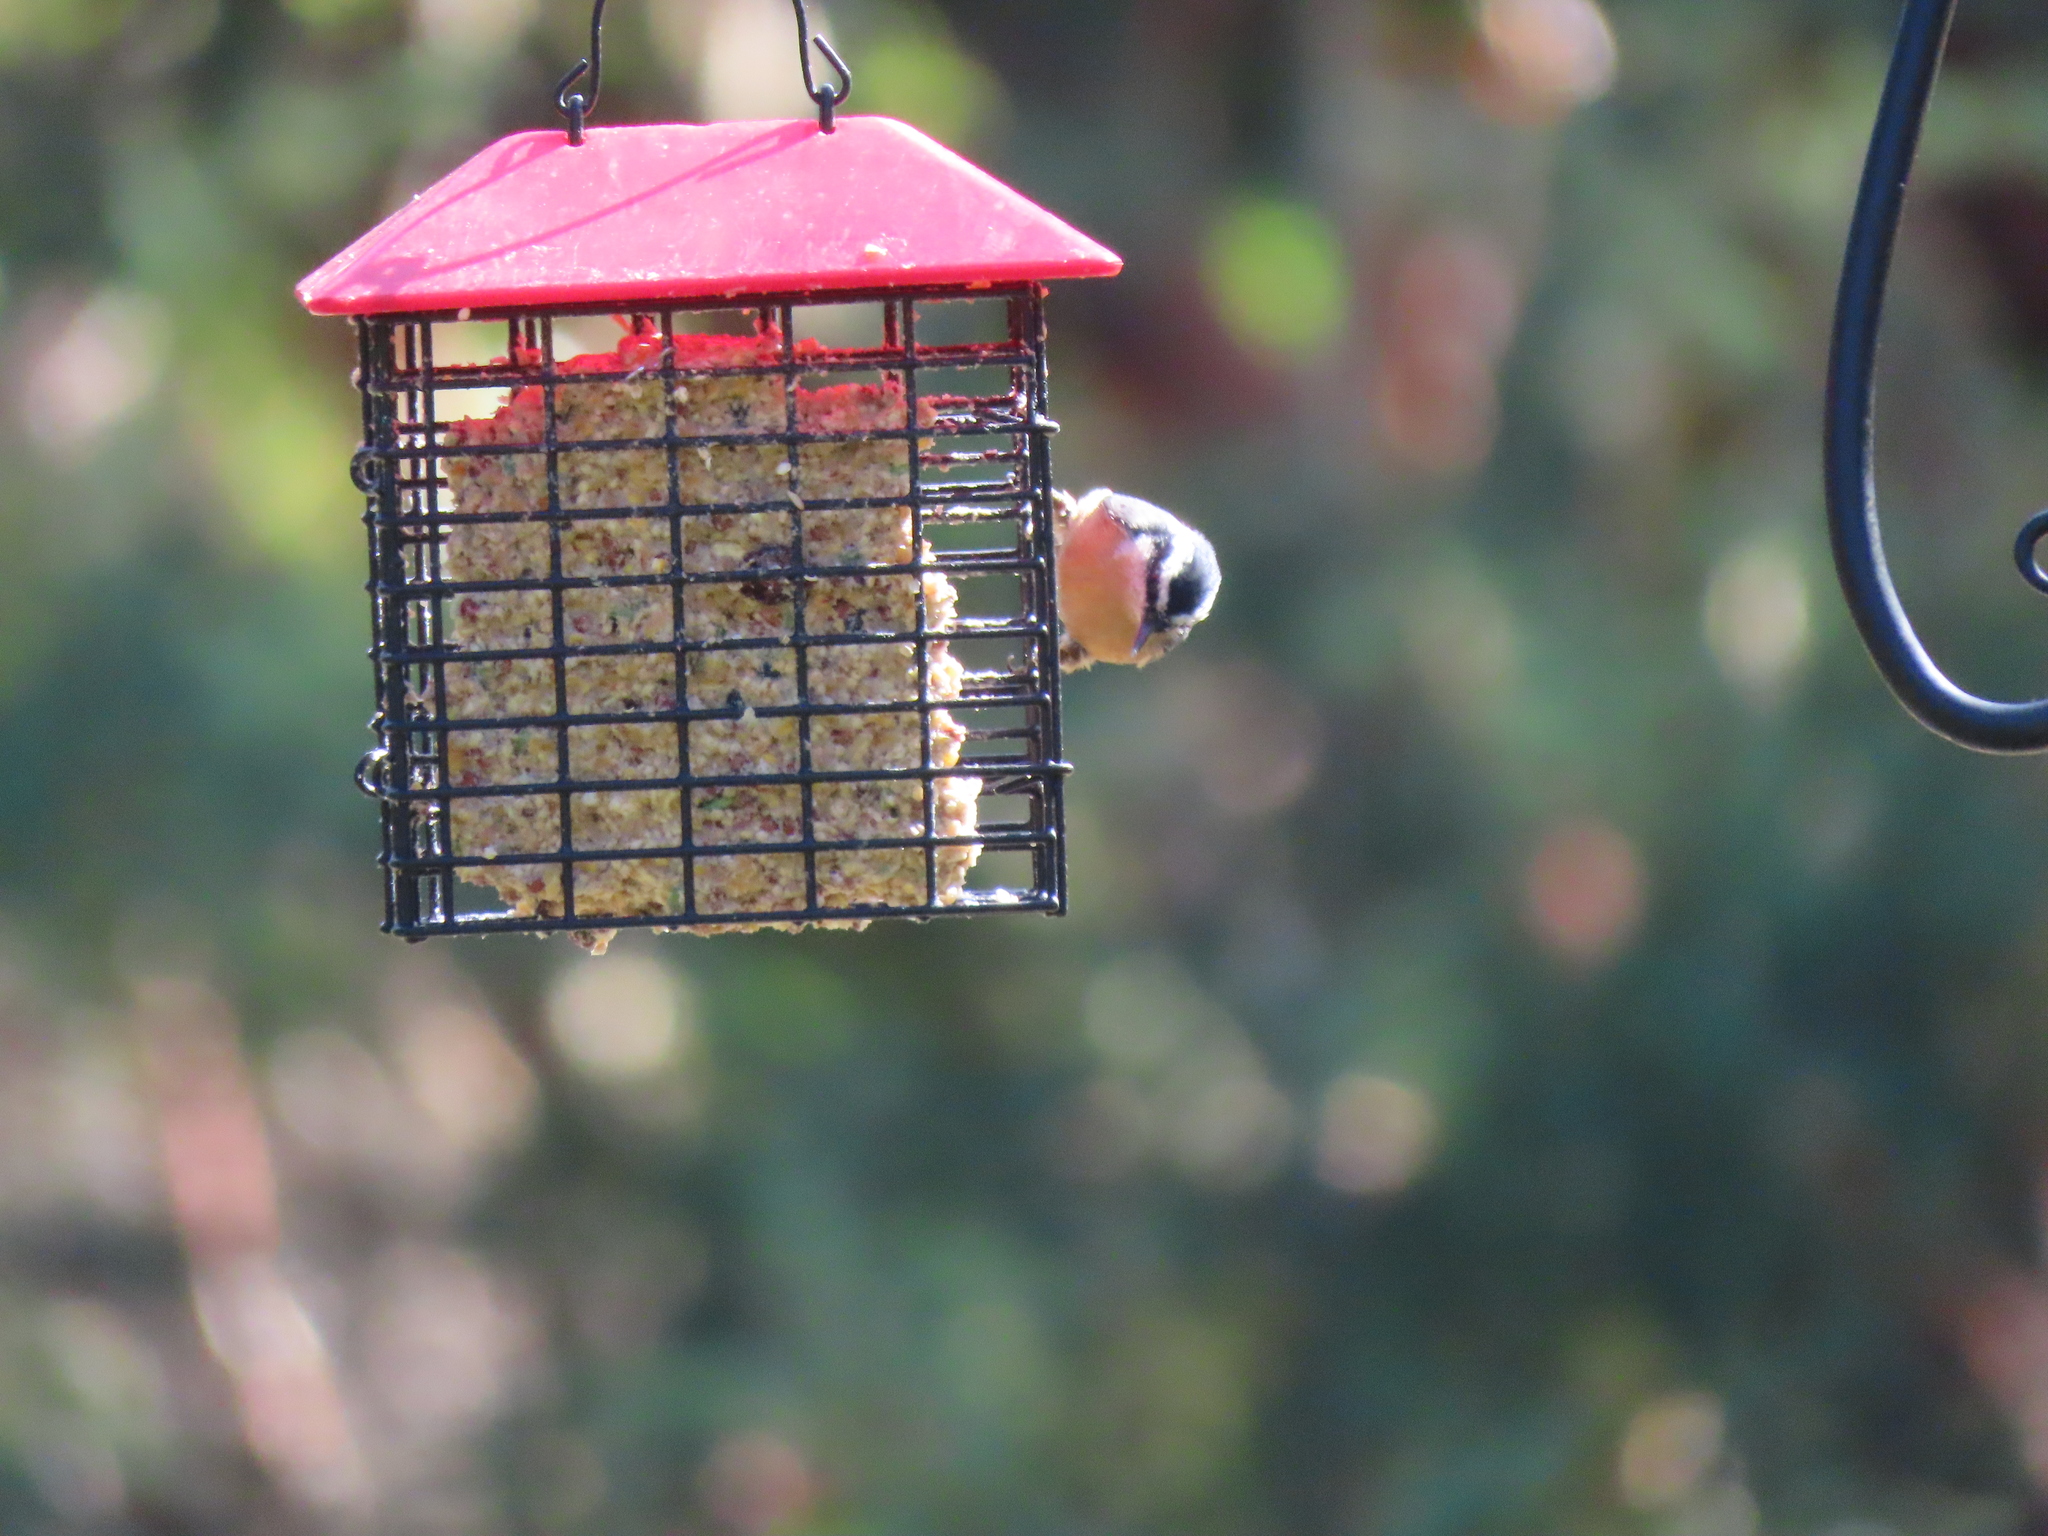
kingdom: Animalia
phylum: Chordata
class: Aves
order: Passeriformes
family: Sittidae
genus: Sitta
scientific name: Sitta canadensis
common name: Red-breasted nuthatch
